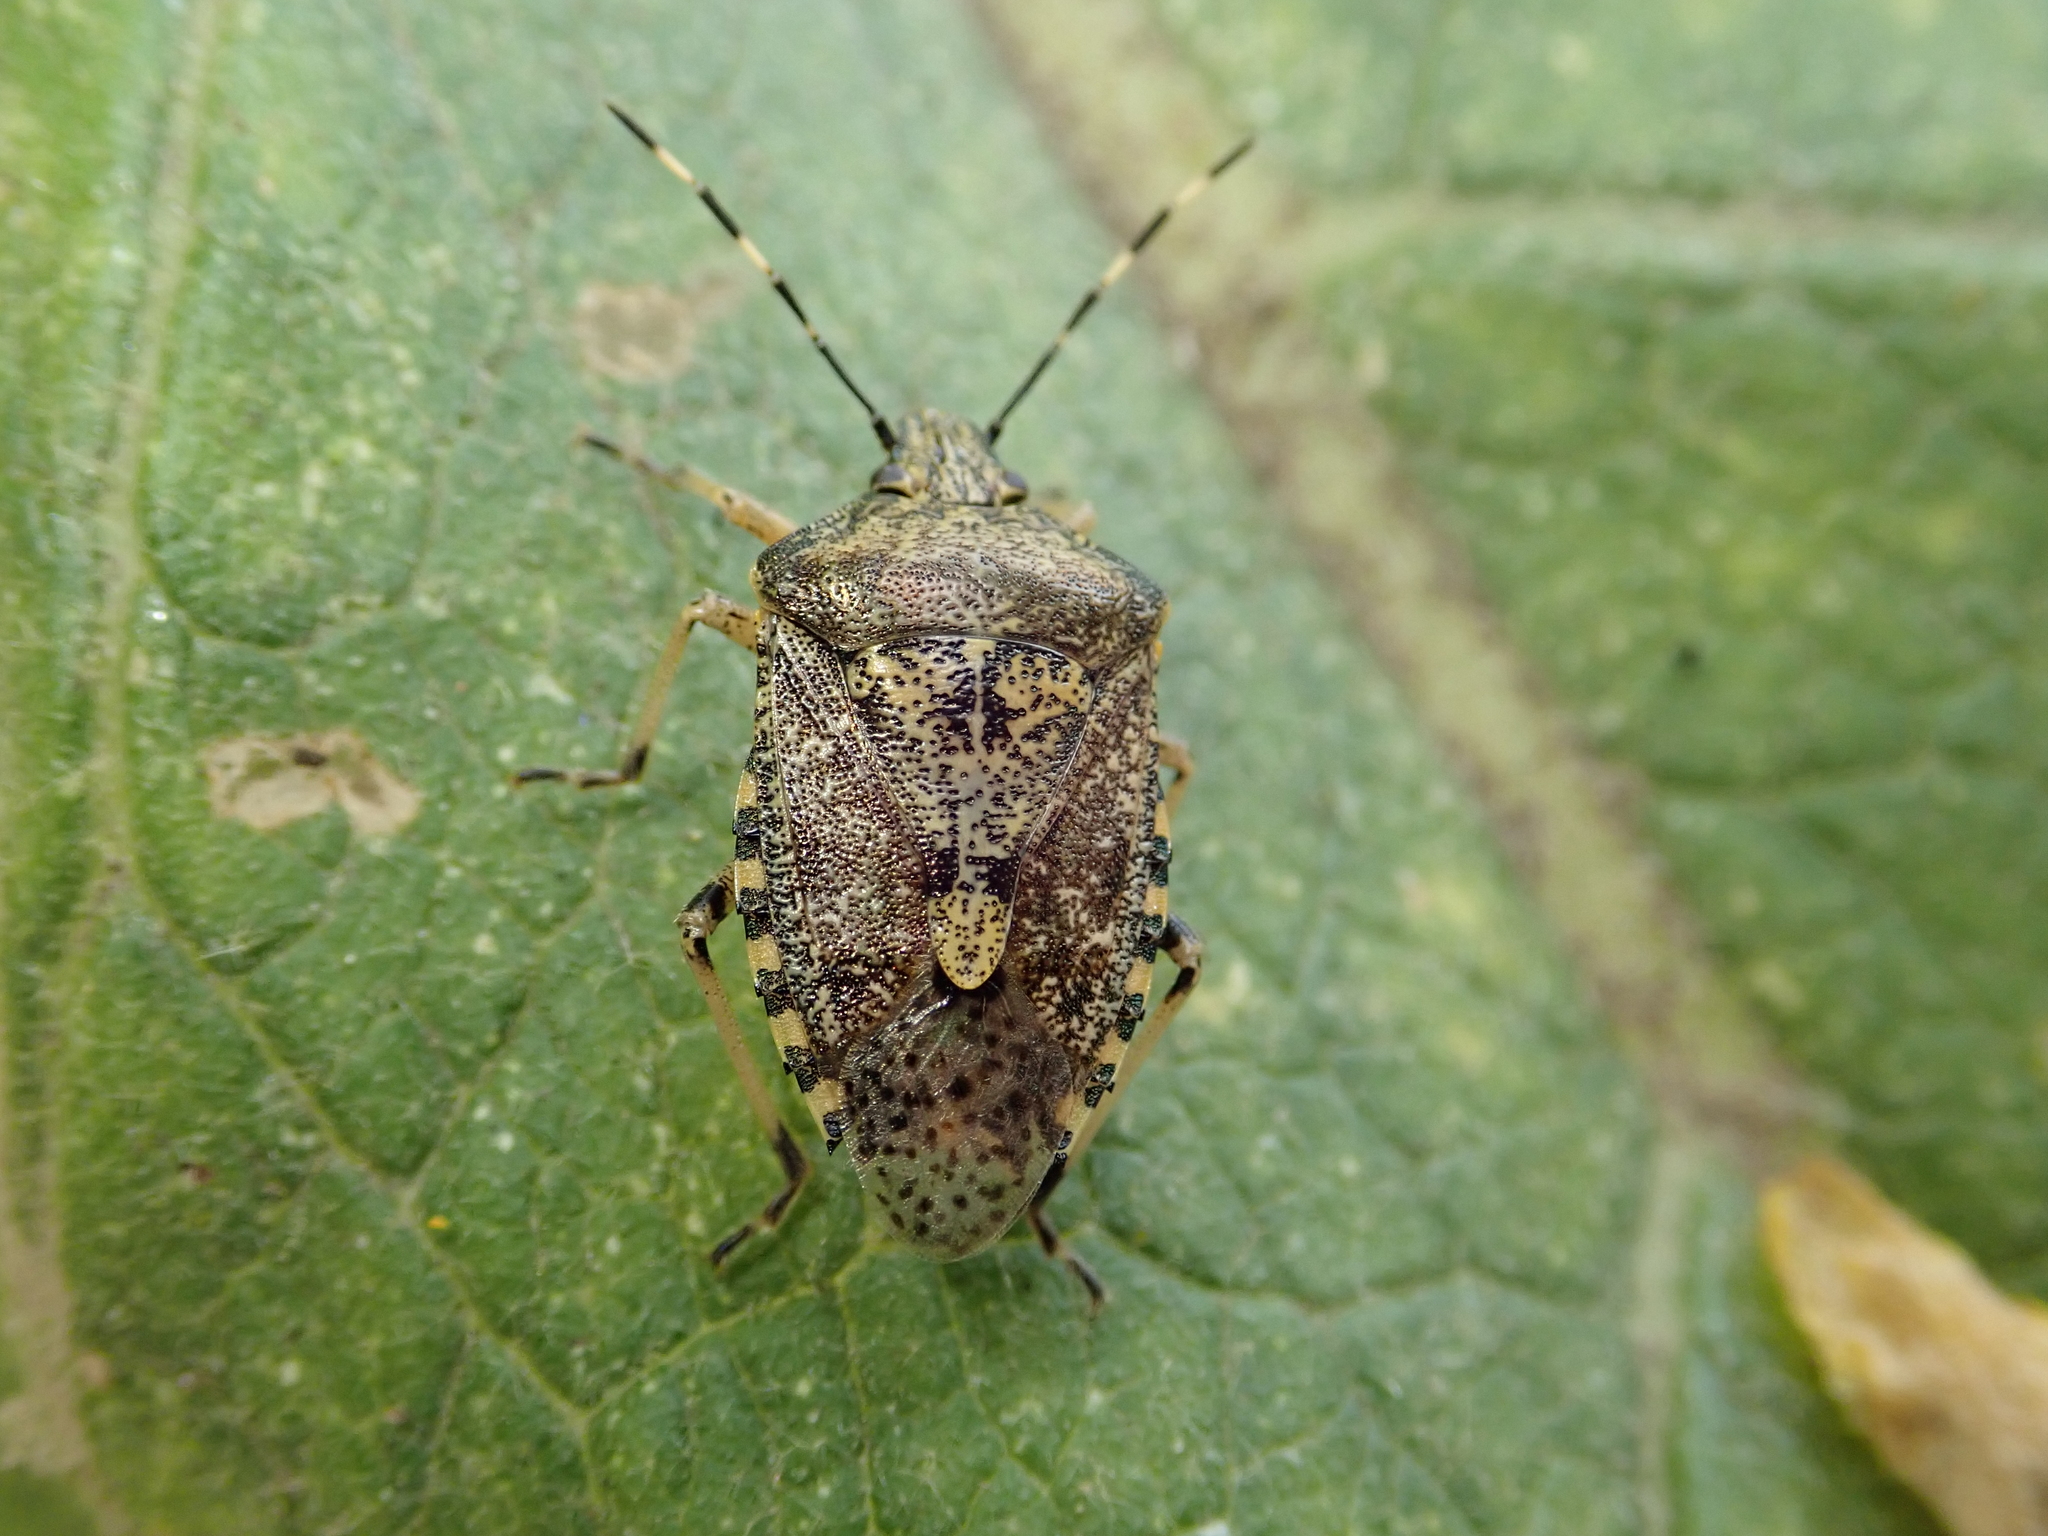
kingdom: Animalia
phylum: Arthropoda
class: Insecta
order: Hemiptera
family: Pentatomidae
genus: Rhaphigaster
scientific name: Rhaphigaster nebulosa
